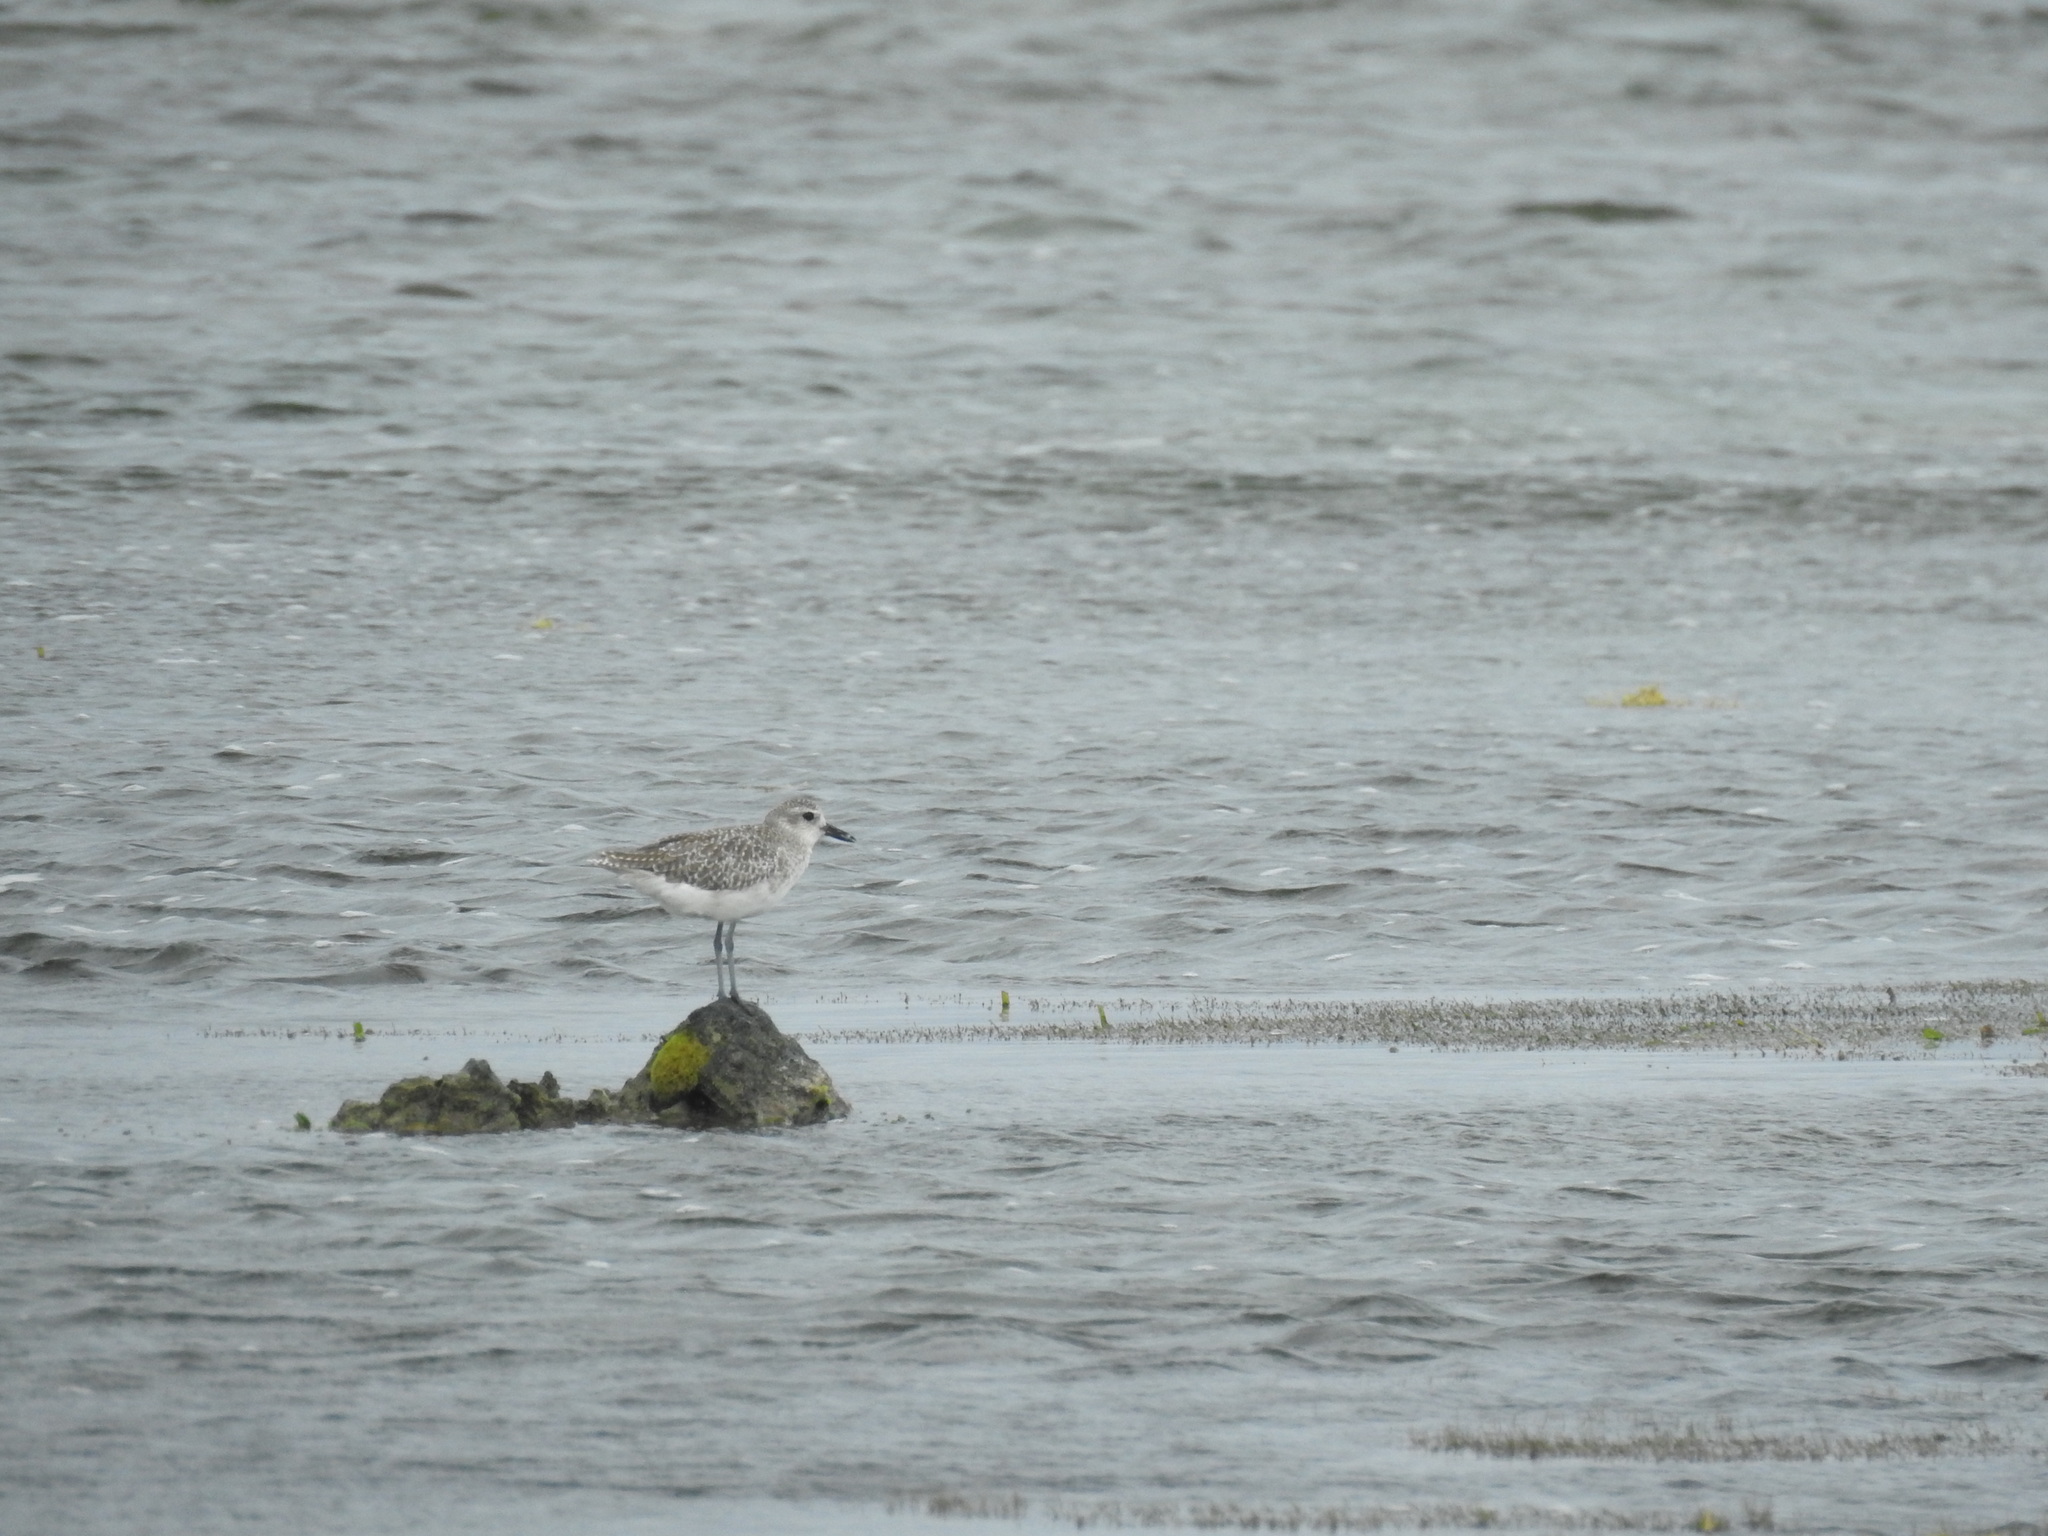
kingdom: Animalia
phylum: Chordata
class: Aves
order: Charadriiformes
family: Charadriidae
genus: Pluvialis
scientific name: Pluvialis squatarola
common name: Grey plover
